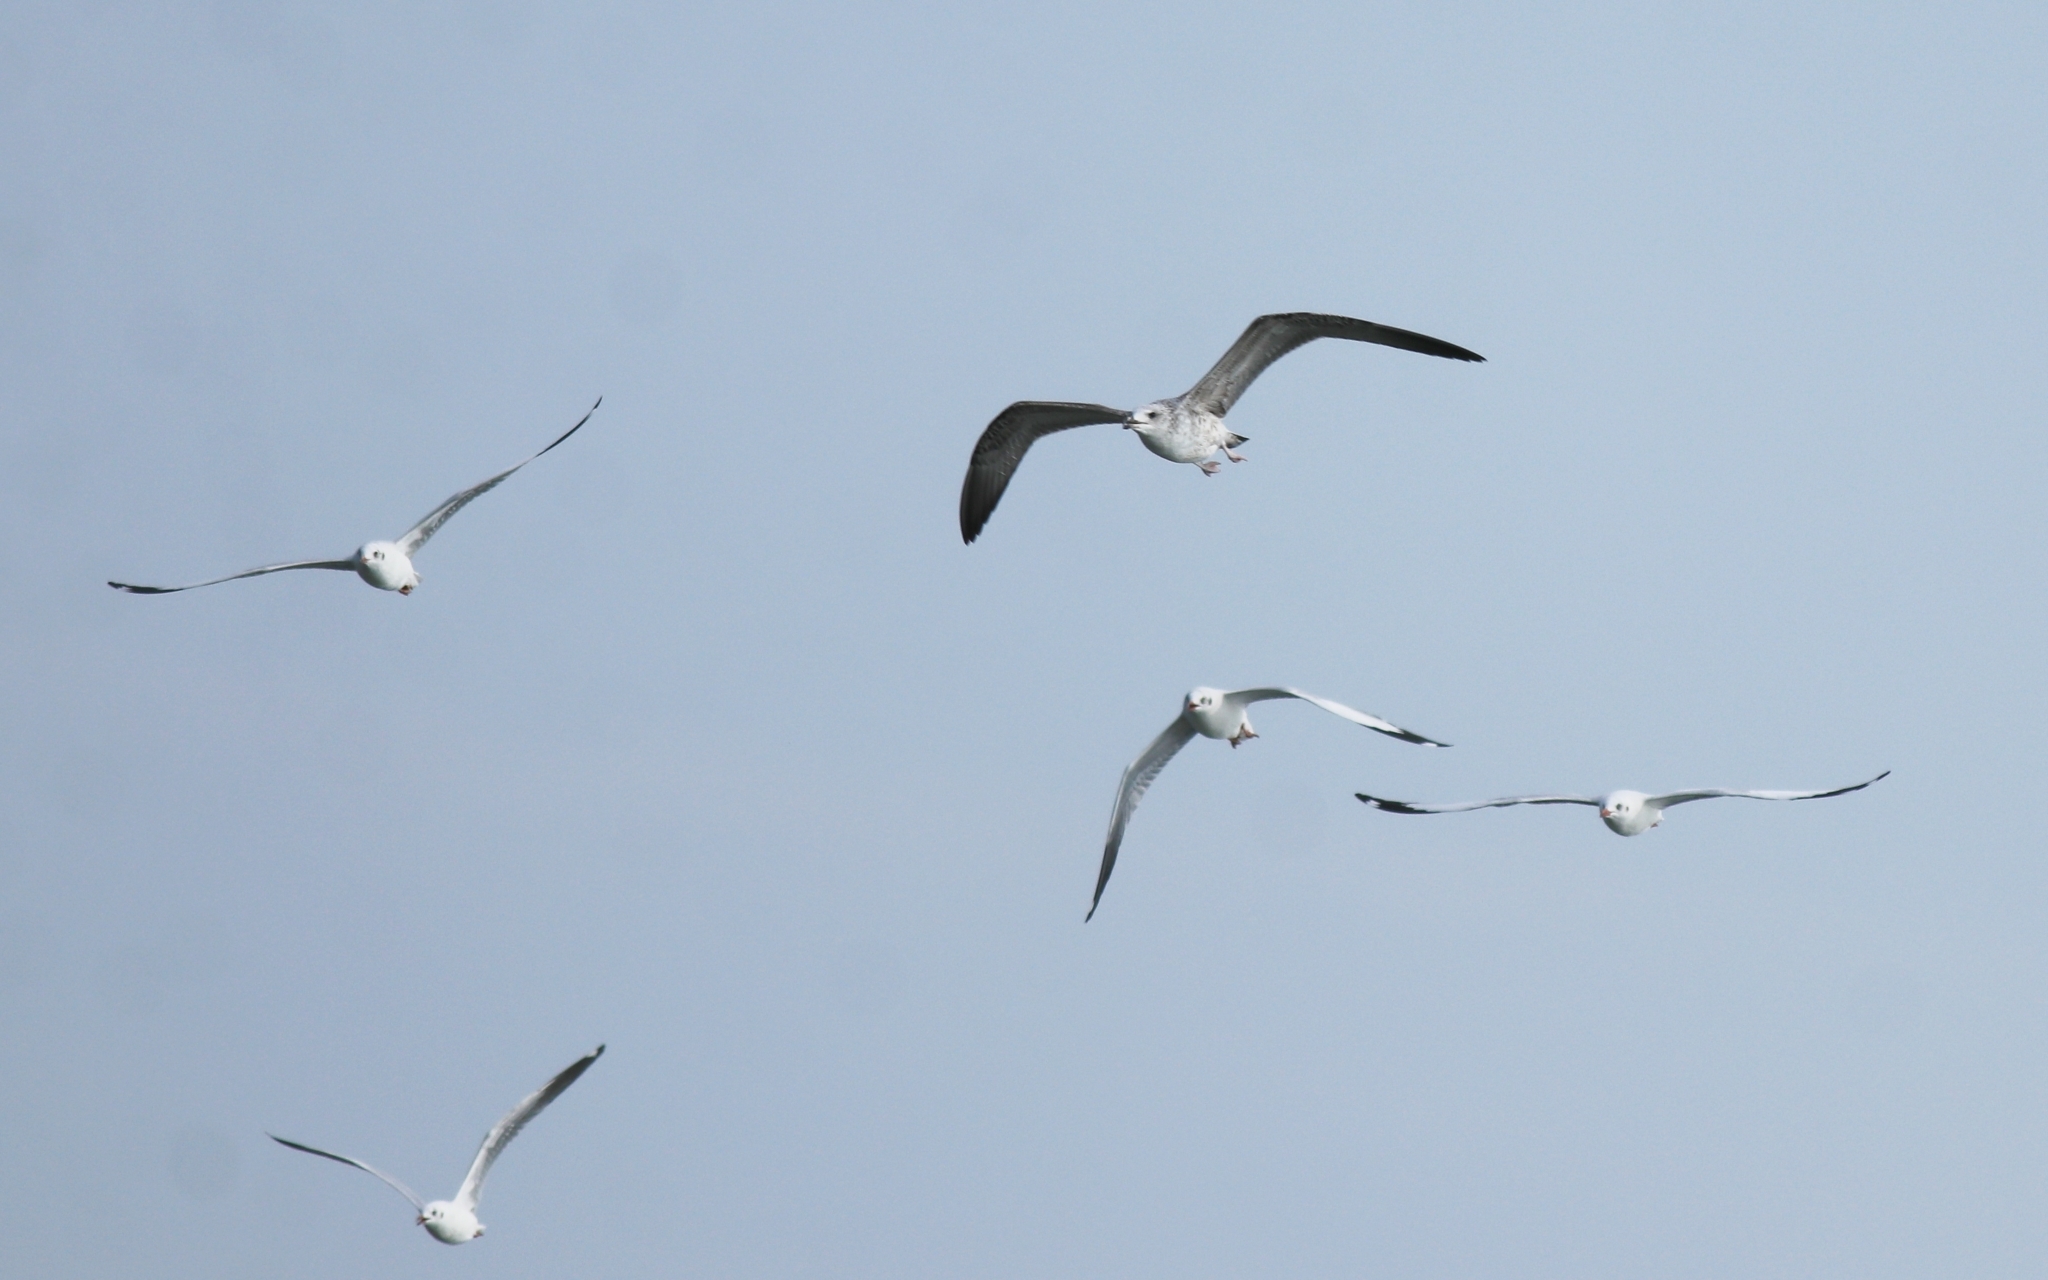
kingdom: Animalia
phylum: Chordata
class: Aves
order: Charadriiformes
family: Laridae
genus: Chroicocephalus
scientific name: Chroicocephalus brunnicephalus
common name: Brown-headed gull
